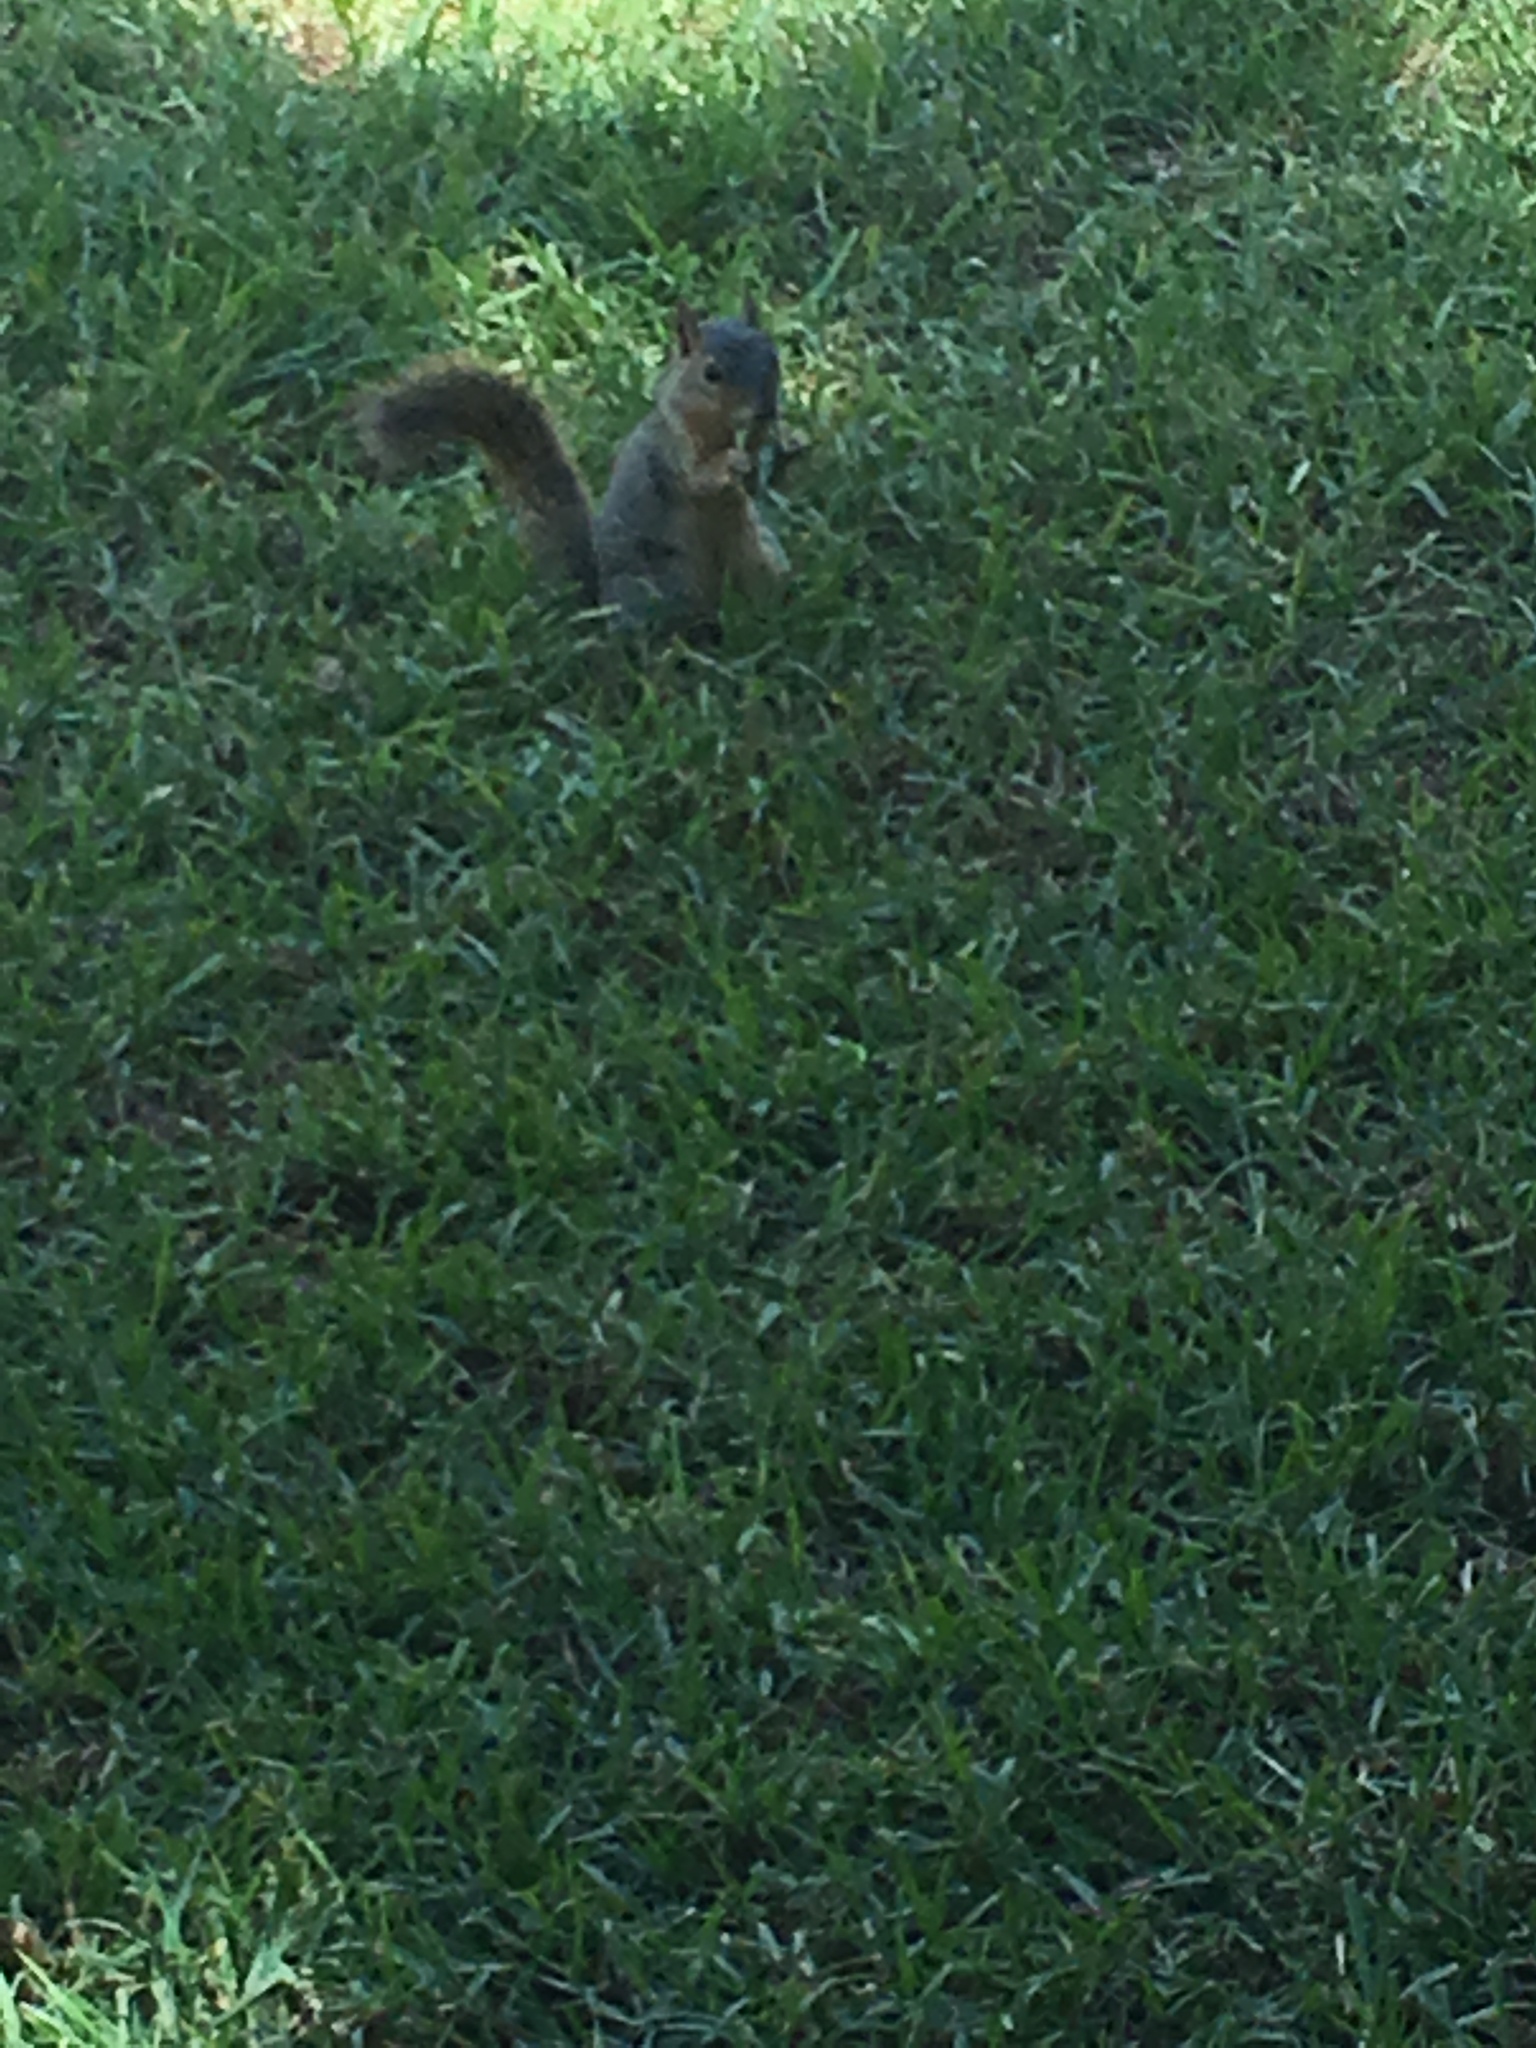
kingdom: Animalia
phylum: Chordata
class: Mammalia
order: Rodentia
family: Sciuridae
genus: Sciurus
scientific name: Sciurus niger
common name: Fox squirrel
